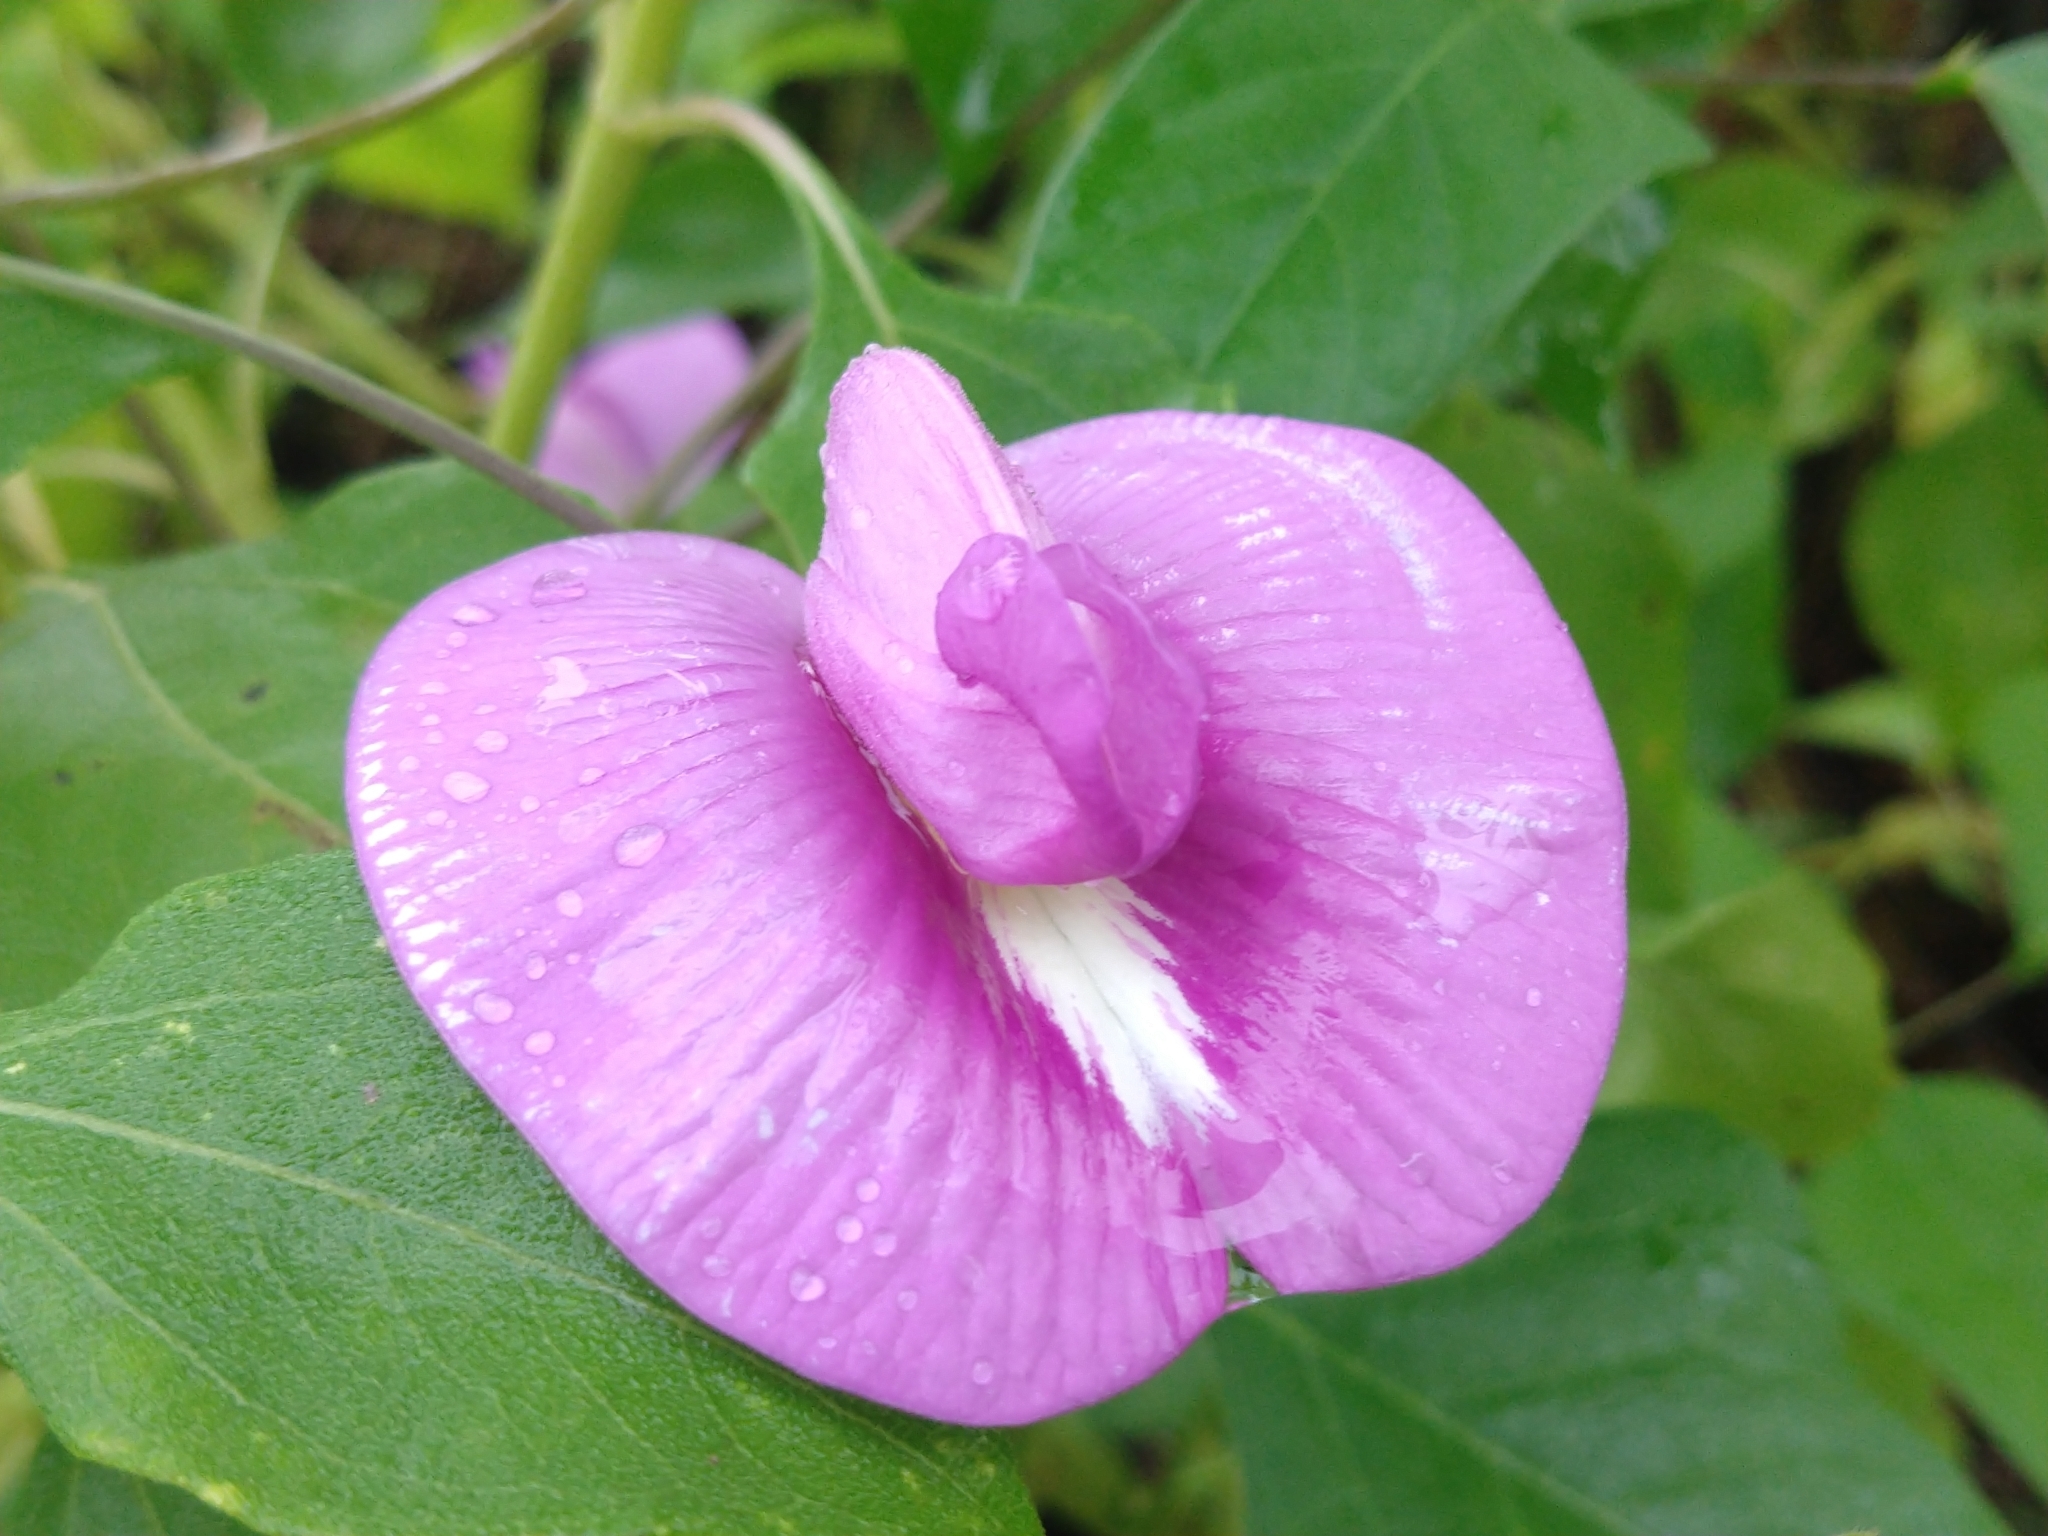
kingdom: Plantae
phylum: Tracheophyta
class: Magnoliopsida
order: Fabales
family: Fabaceae
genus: Centrosema
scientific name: Centrosema virginianum
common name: Butterfly-pea
